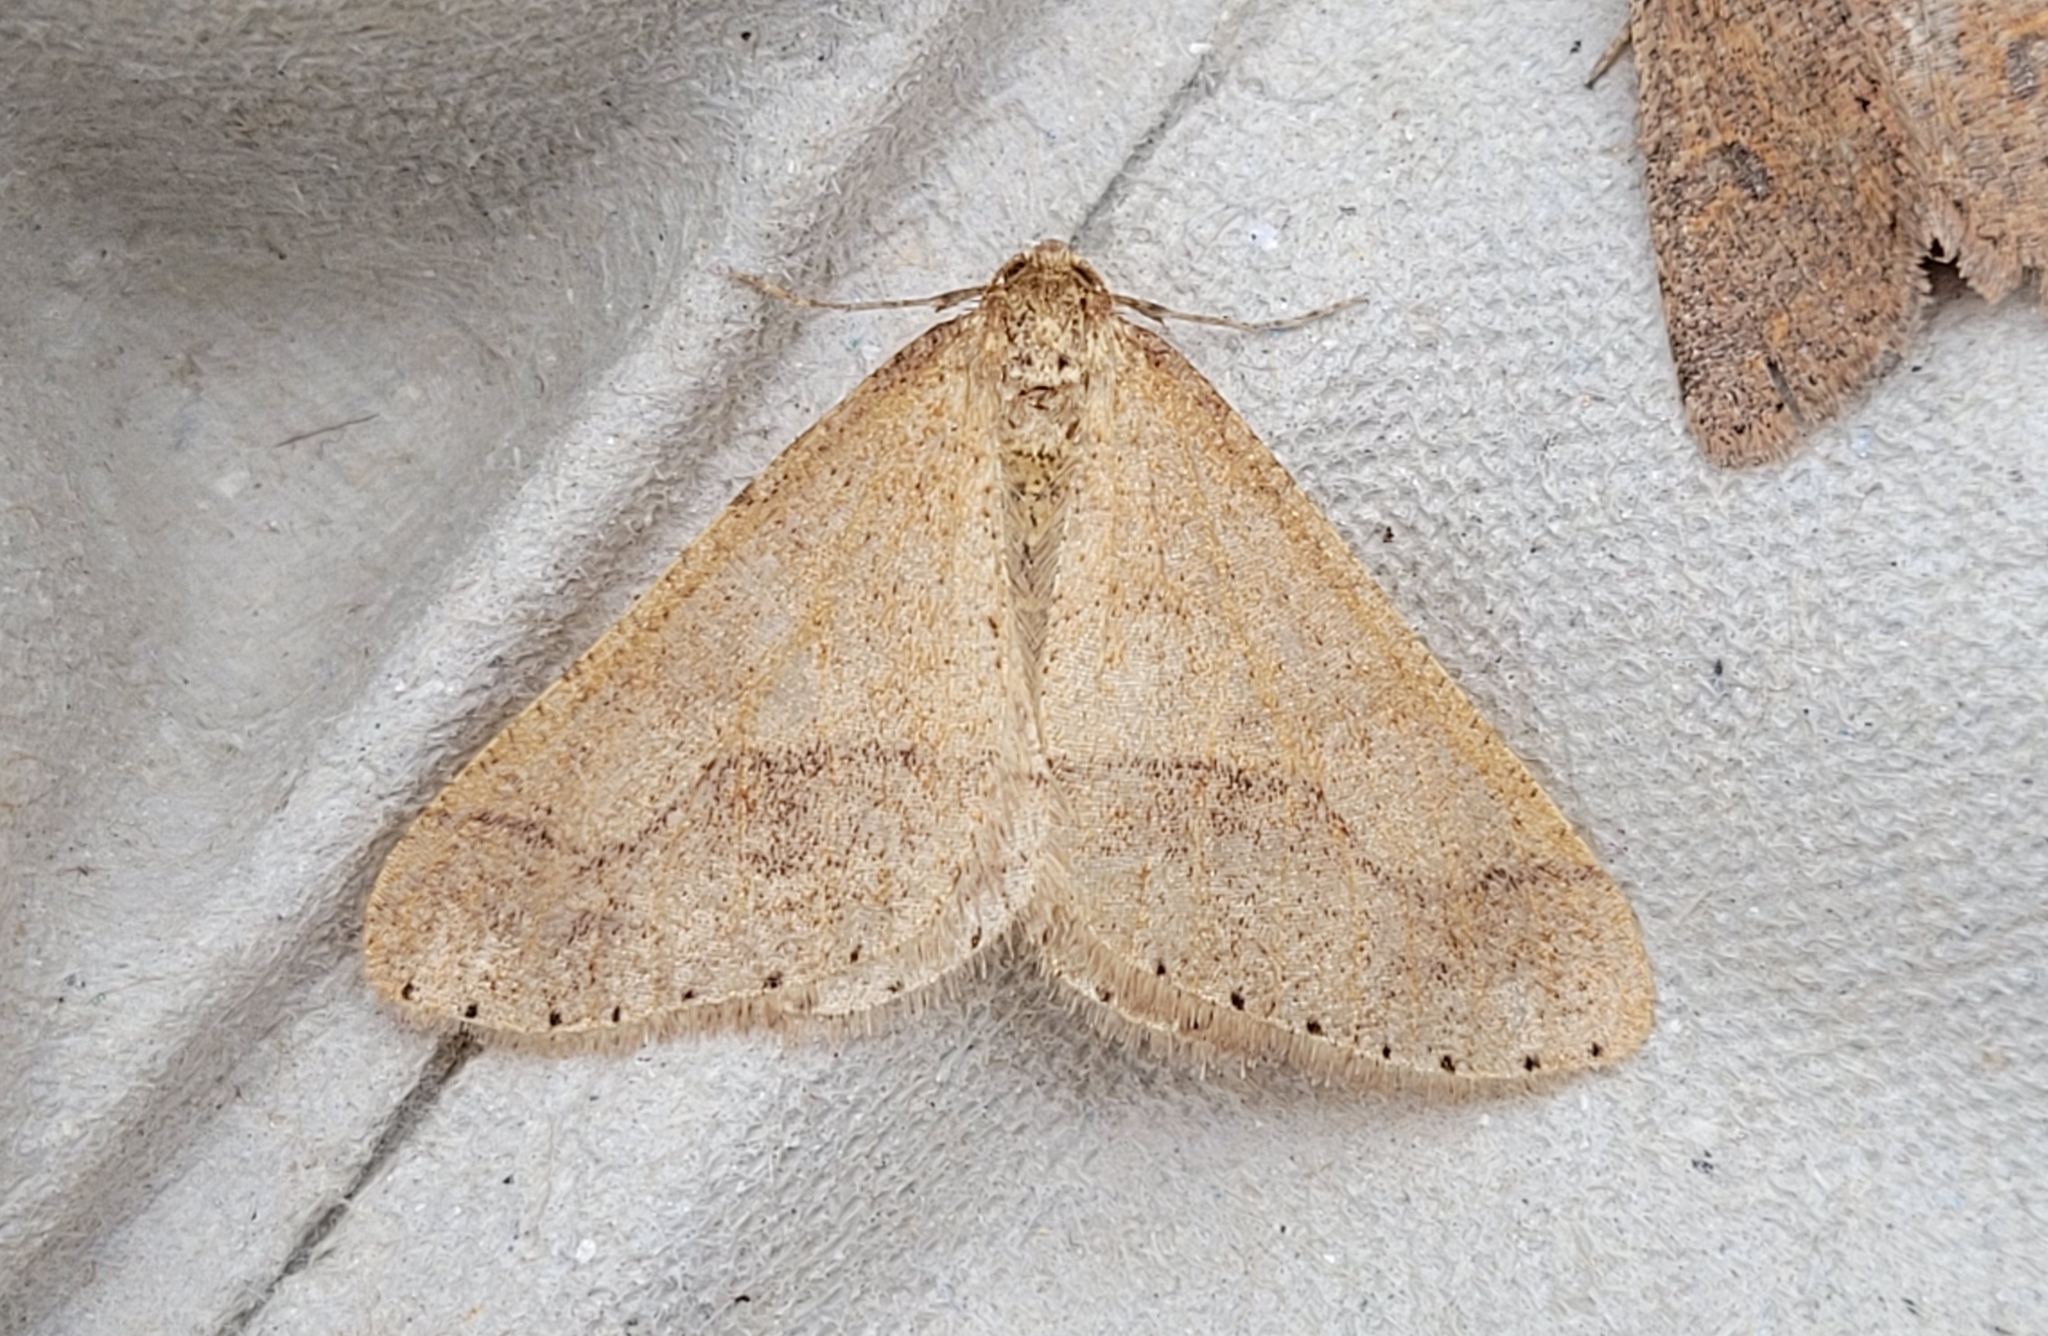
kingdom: Animalia
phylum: Arthropoda
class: Insecta
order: Lepidoptera
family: Geometridae
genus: Agriopis
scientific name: Agriopis marginaria
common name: Dotted border
